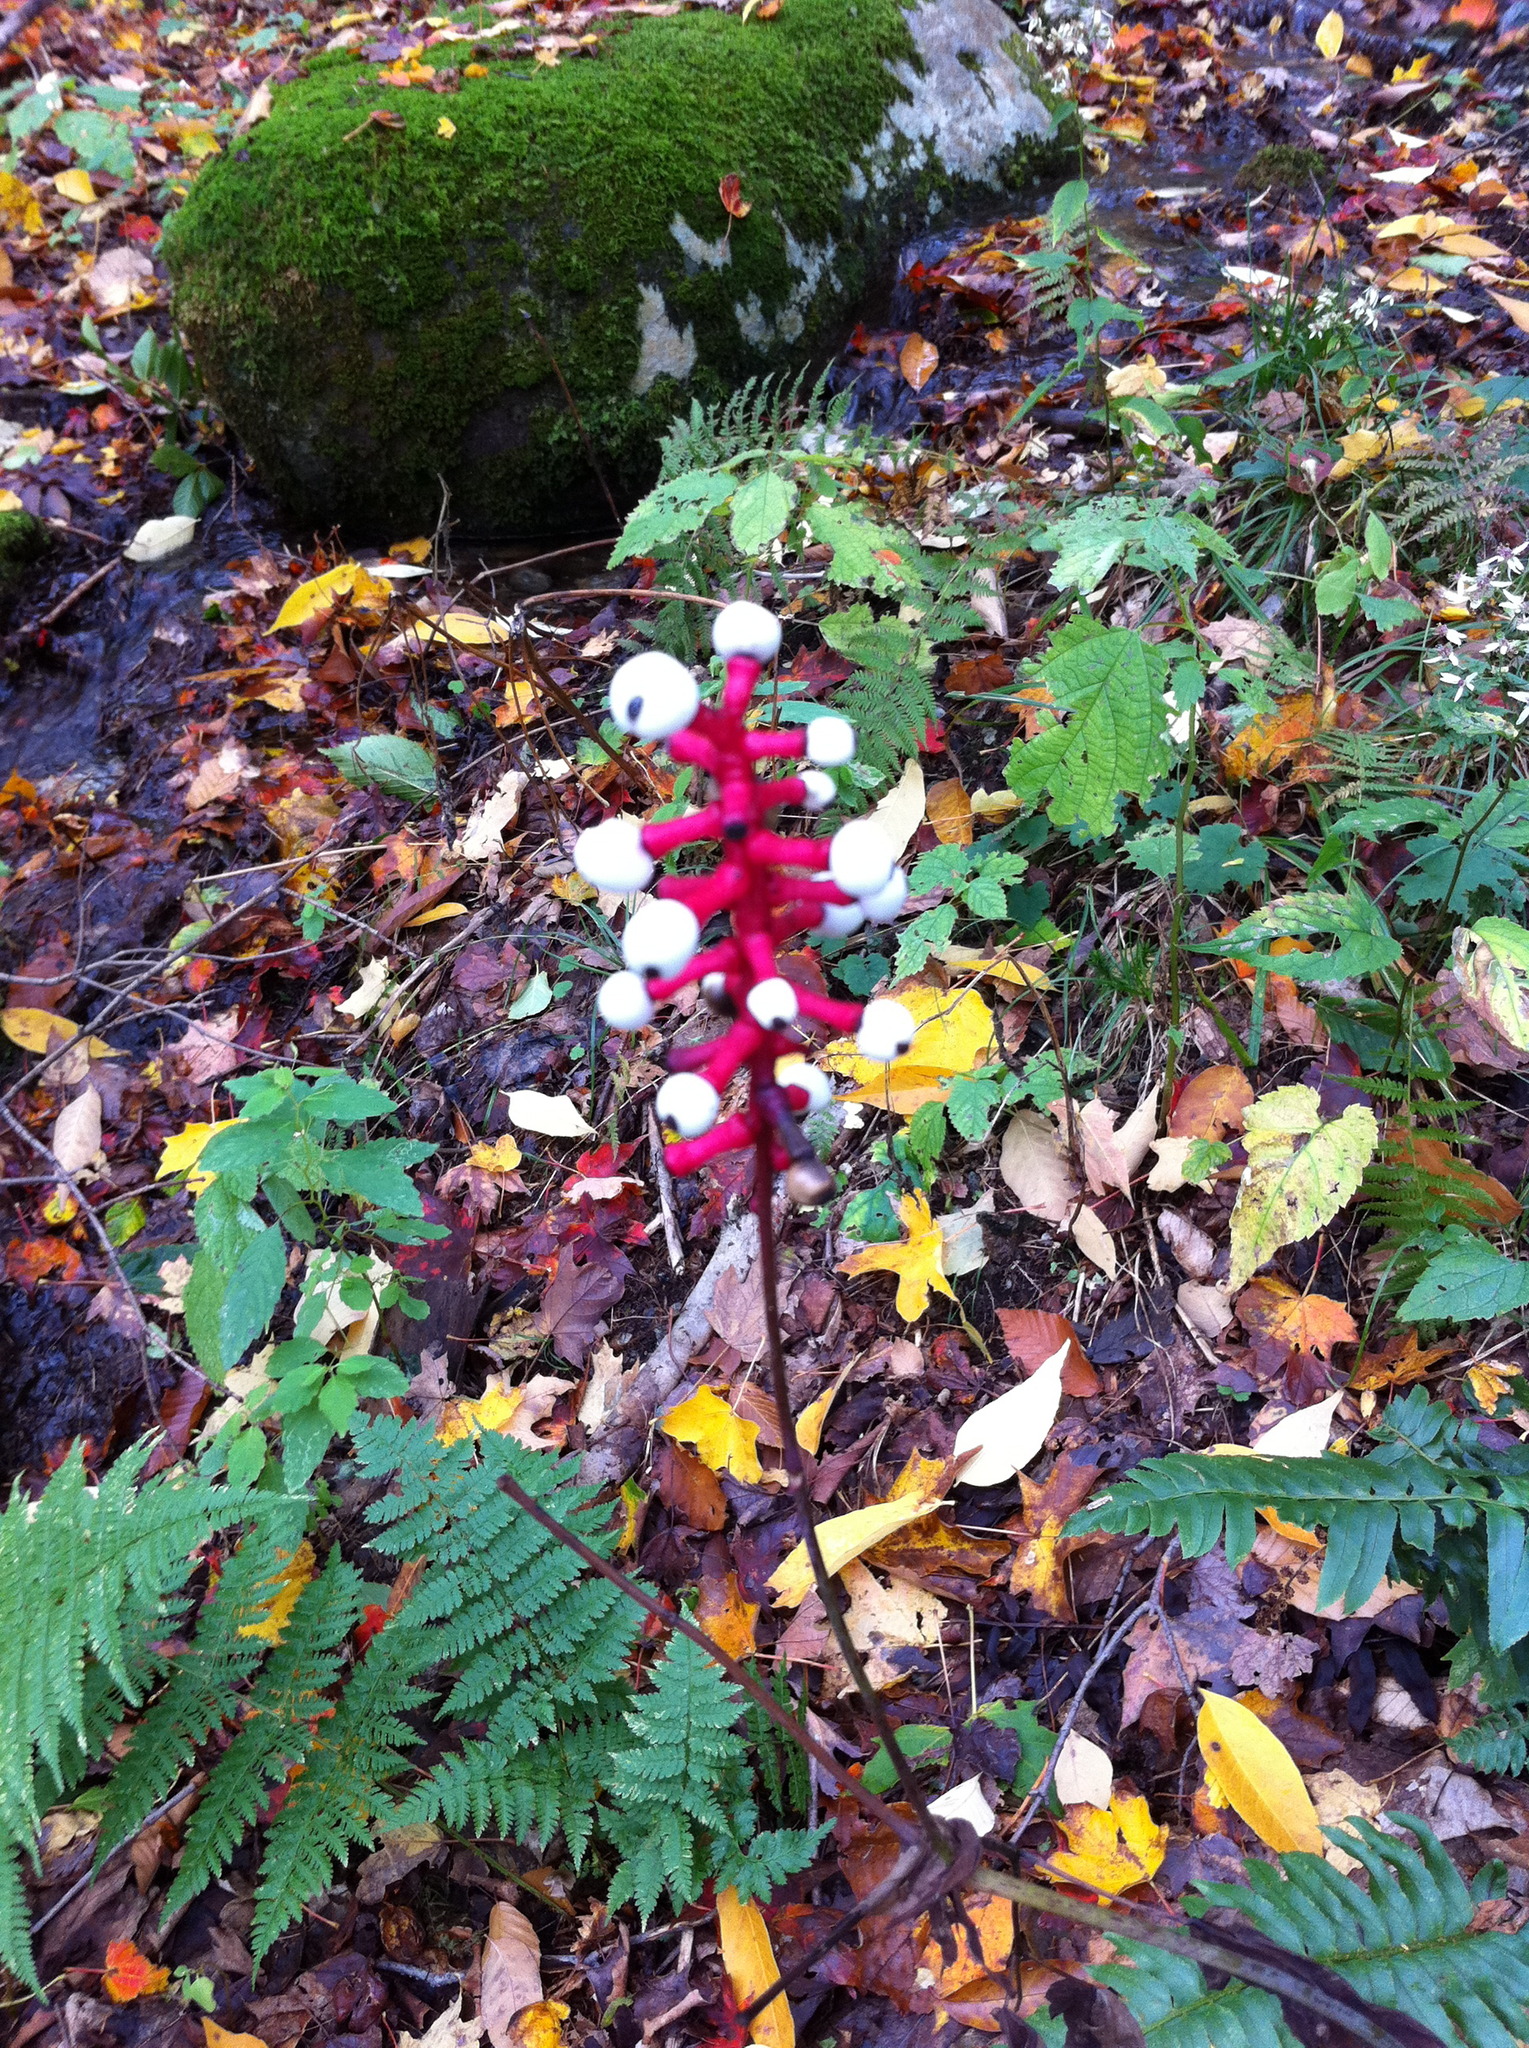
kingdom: Plantae
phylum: Tracheophyta
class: Polypodiopsida
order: Polypodiales
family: Dryopteridaceae
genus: Dryopteris
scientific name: Dryopteris intermedia
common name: Evergreen wood fern
